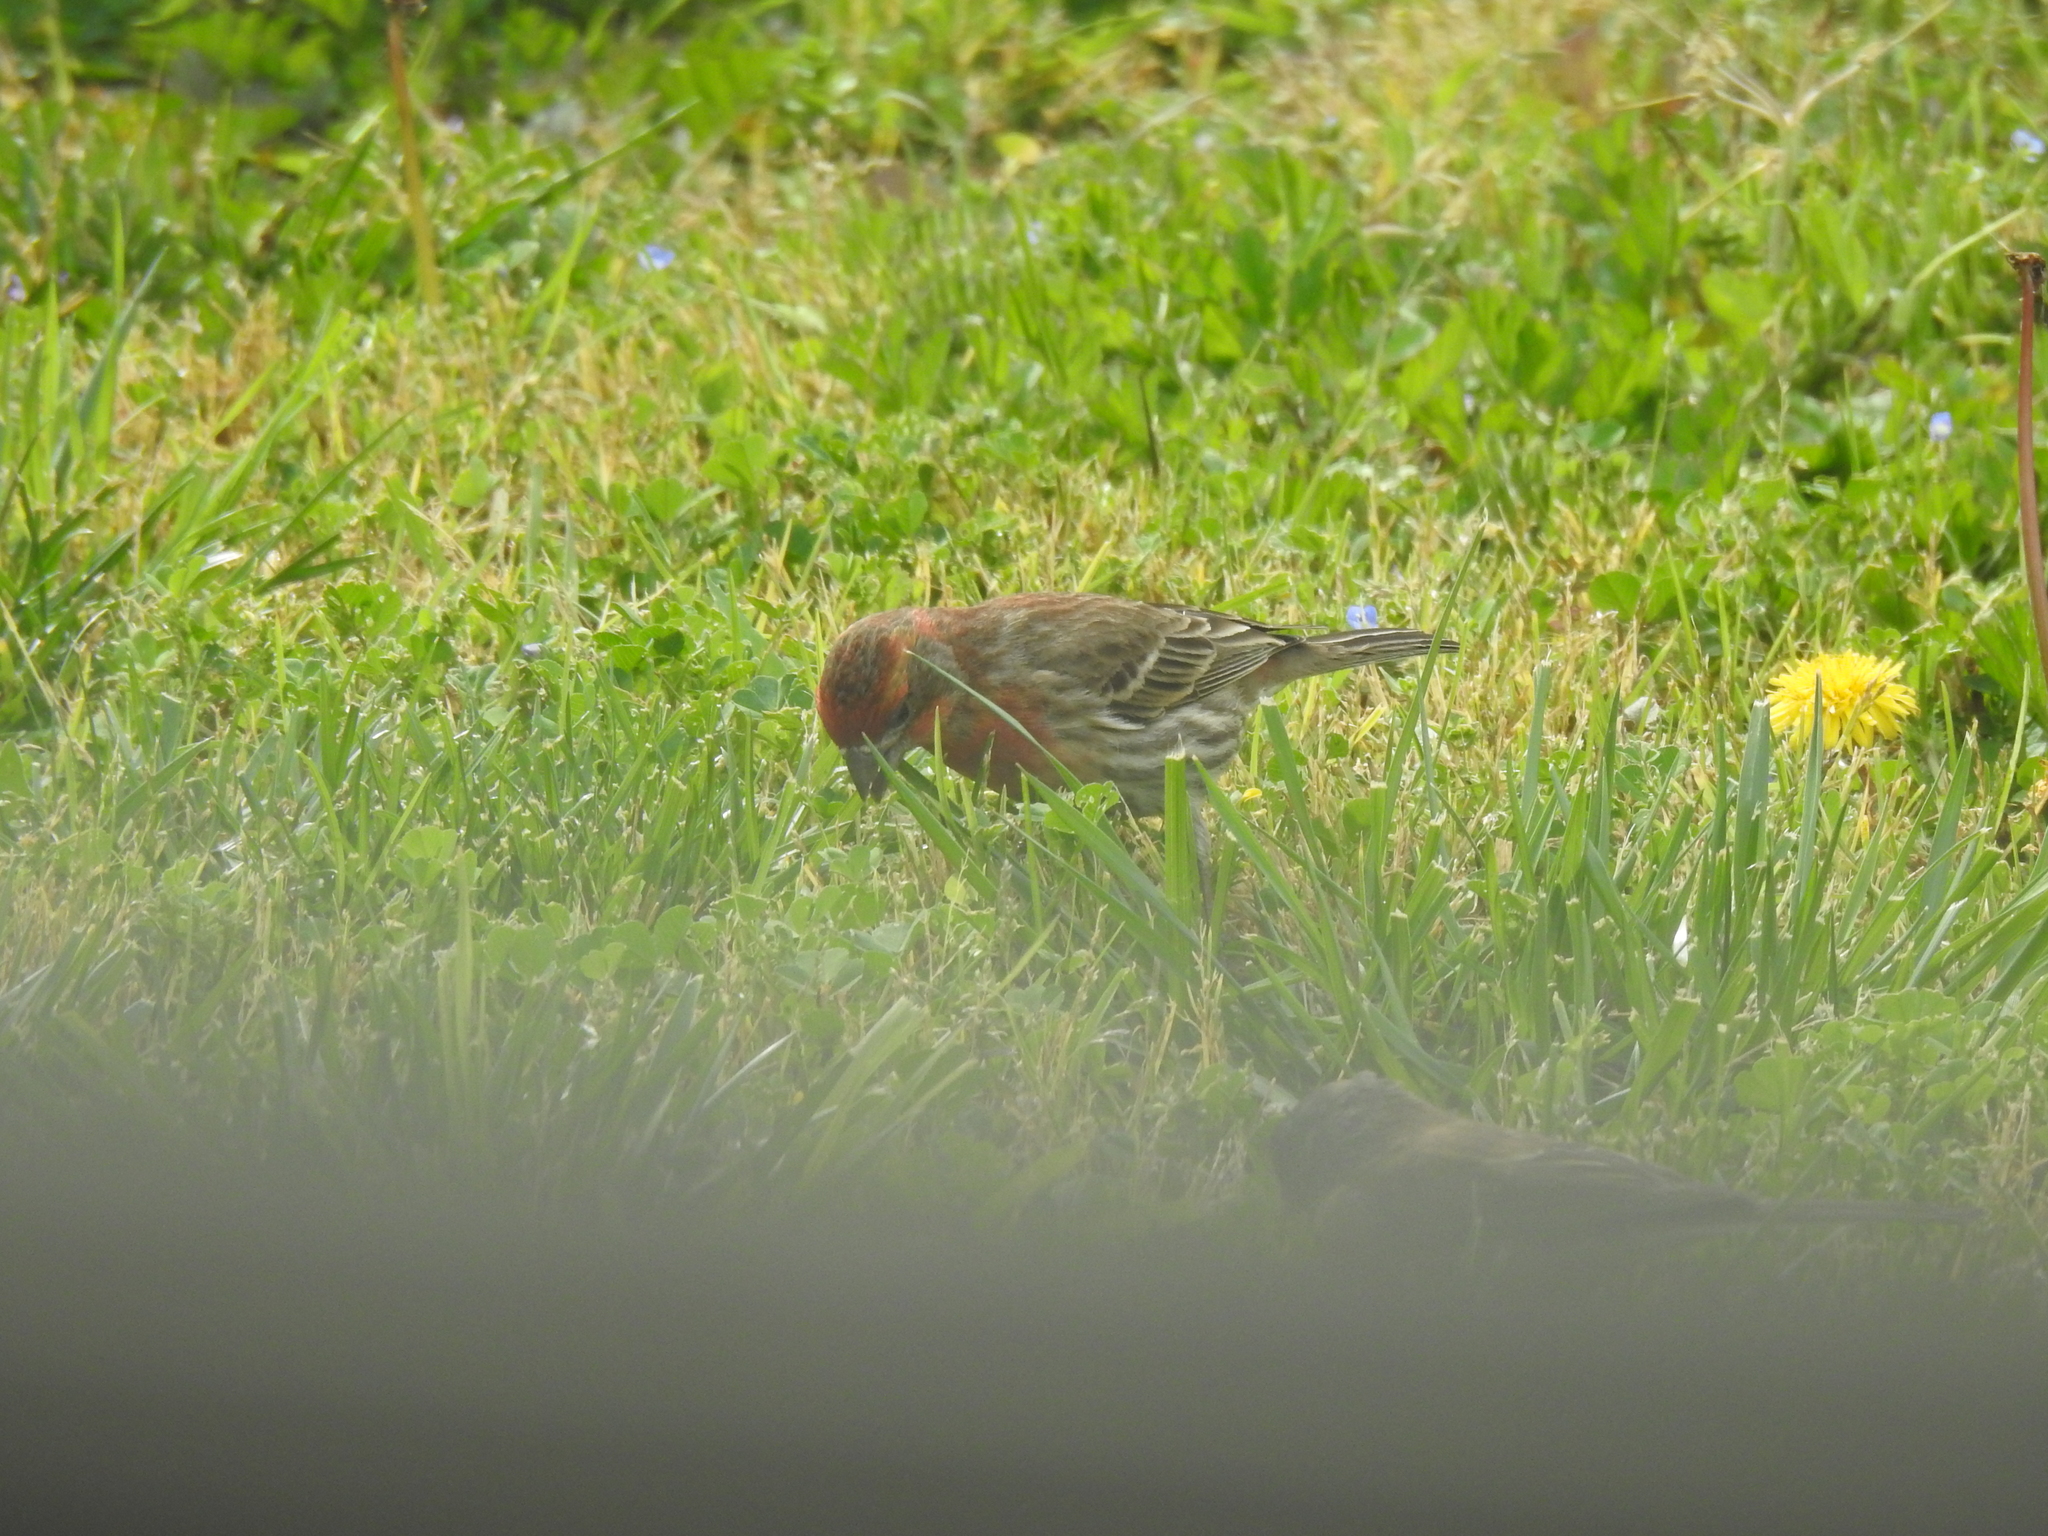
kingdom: Animalia
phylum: Chordata
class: Aves
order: Passeriformes
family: Fringillidae
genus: Haemorhous
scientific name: Haemorhous mexicanus
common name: House finch
